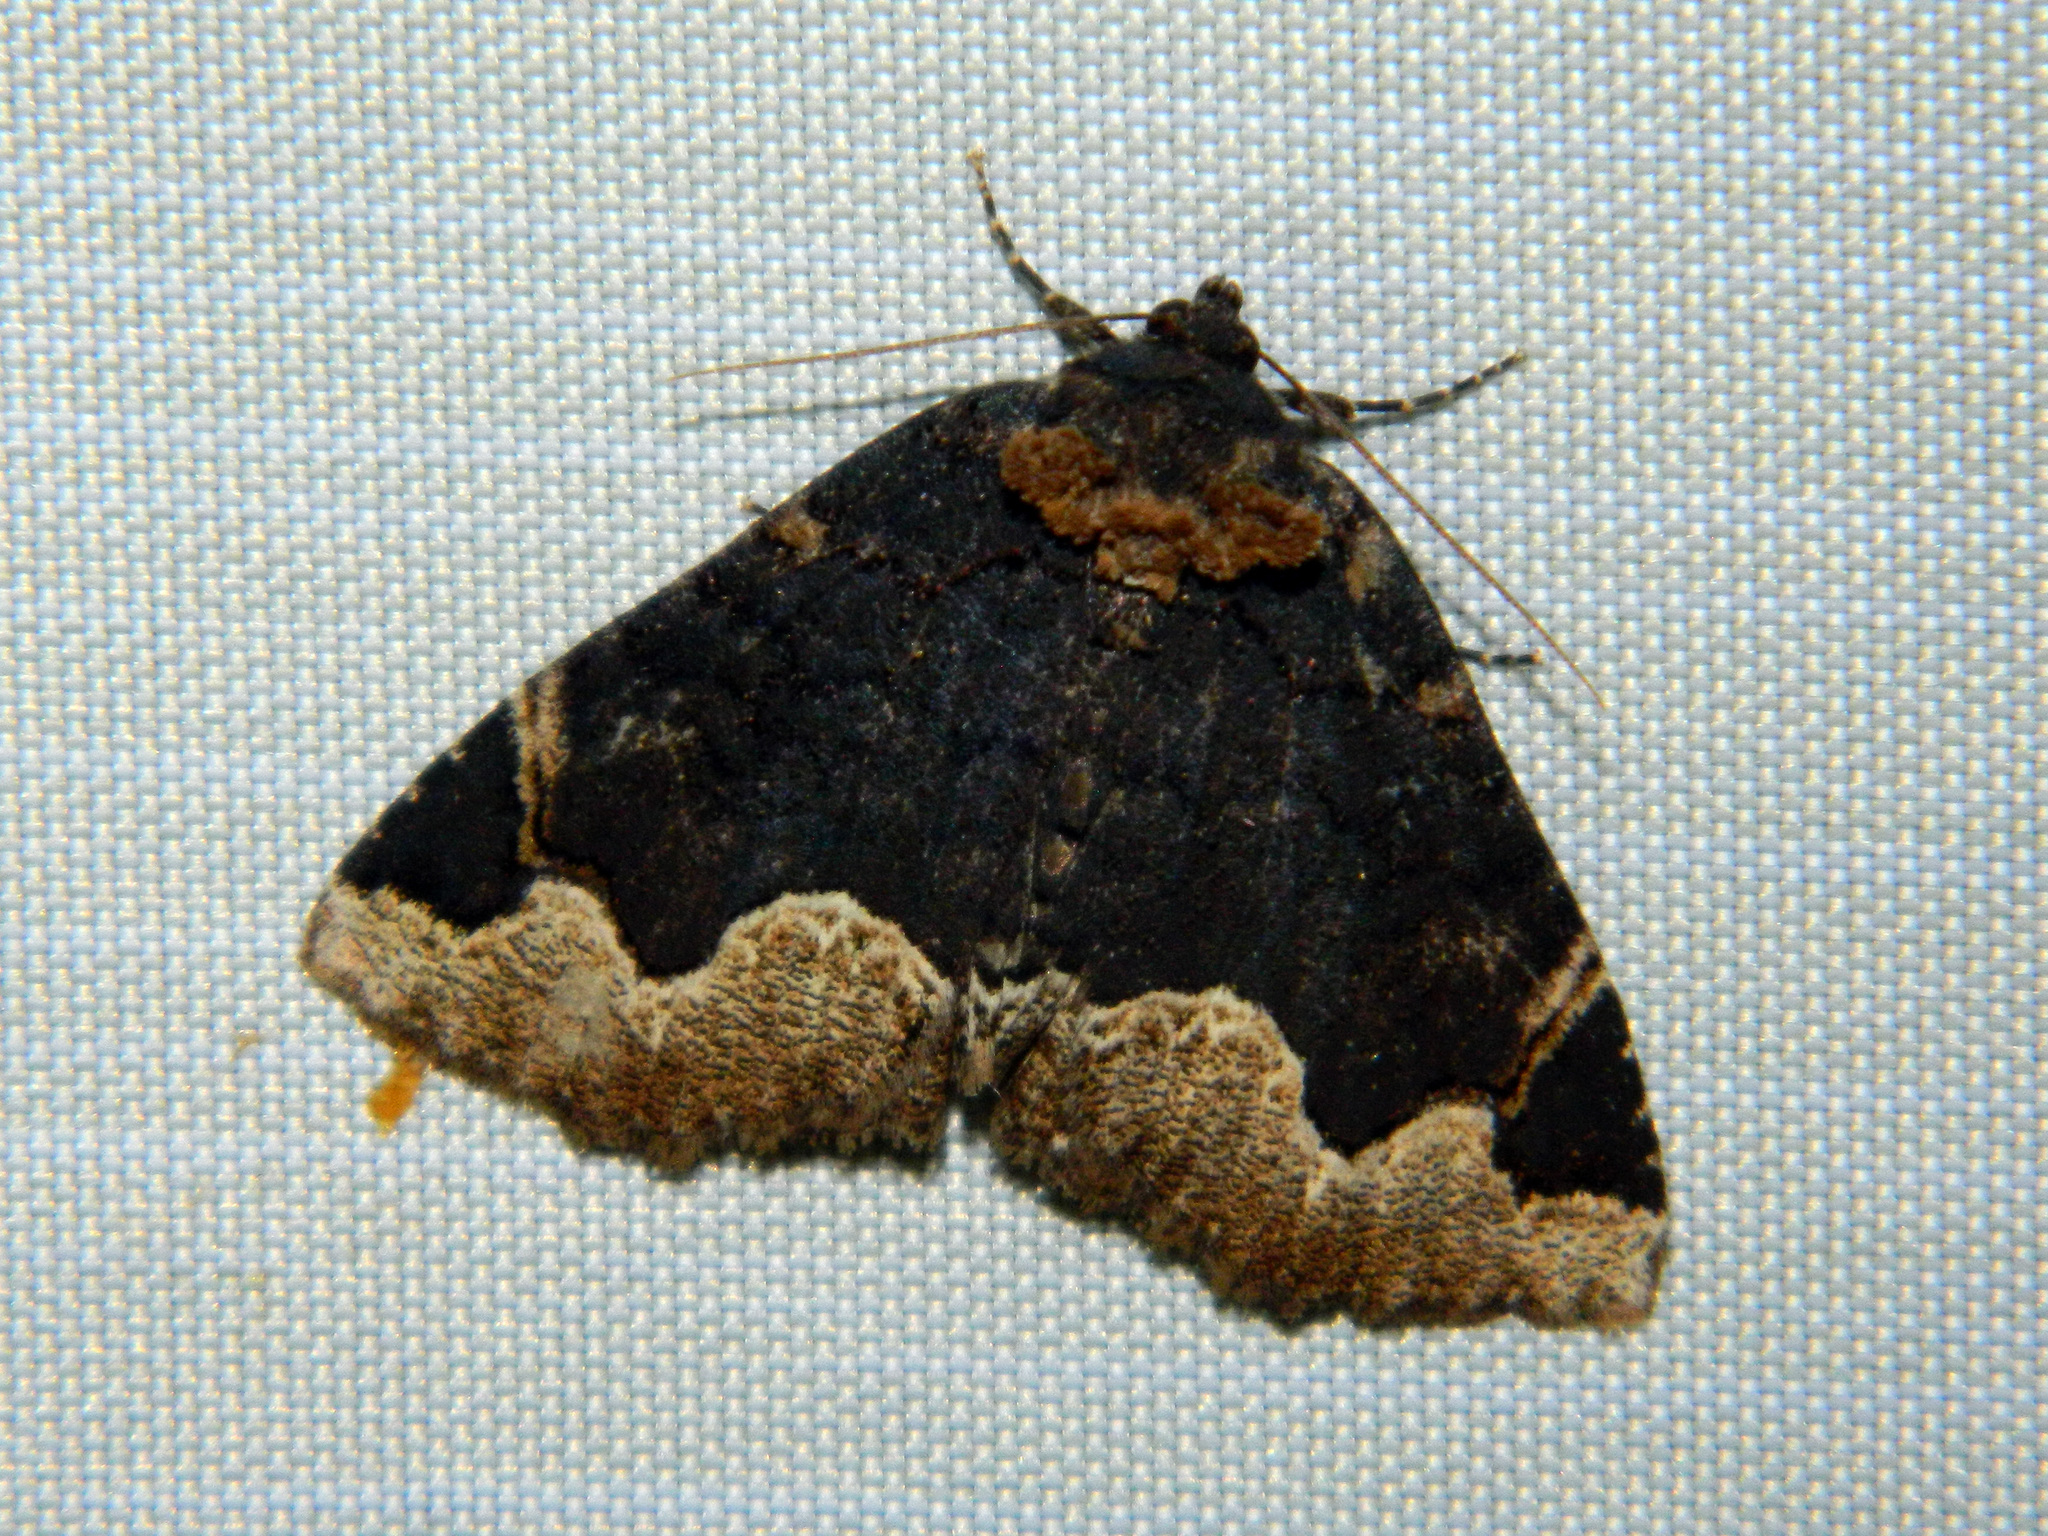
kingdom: Animalia
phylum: Arthropoda
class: Insecta
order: Lepidoptera
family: Erebidae
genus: Zale
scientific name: Zale horrida
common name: Horrid zale moth
